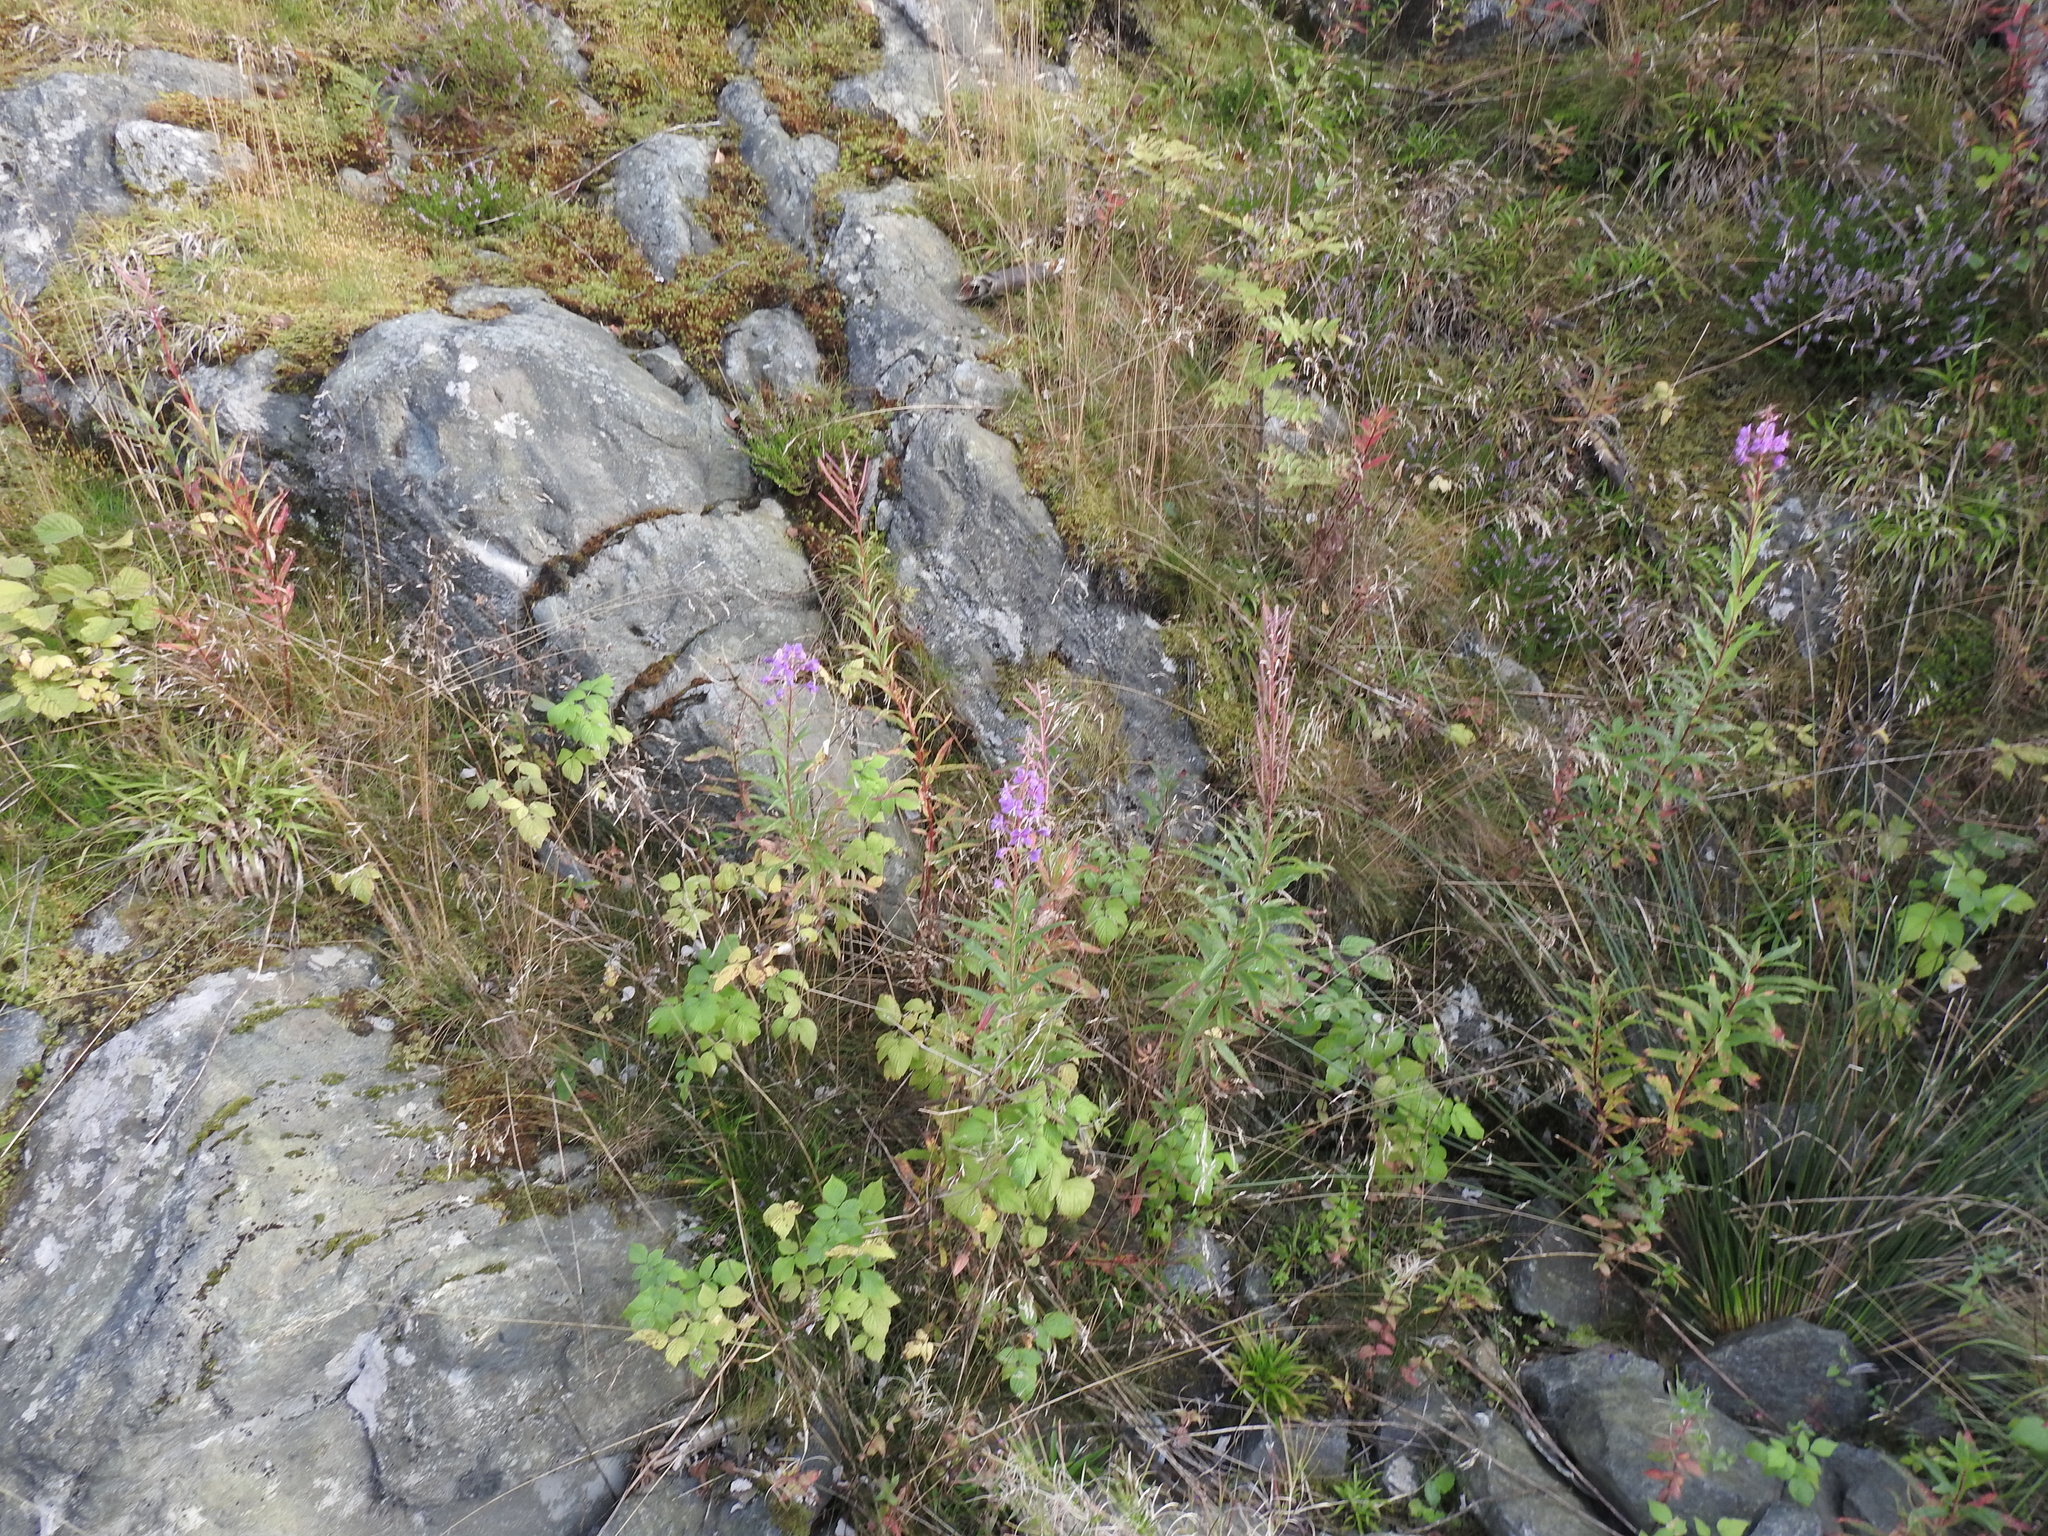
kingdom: Plantae
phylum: Tracheophyta
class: Magnoliopsida
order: Myrtales
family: Onagraceae
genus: Chamaenerion
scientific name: Chamaenerion angustifolium
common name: Fireweed
